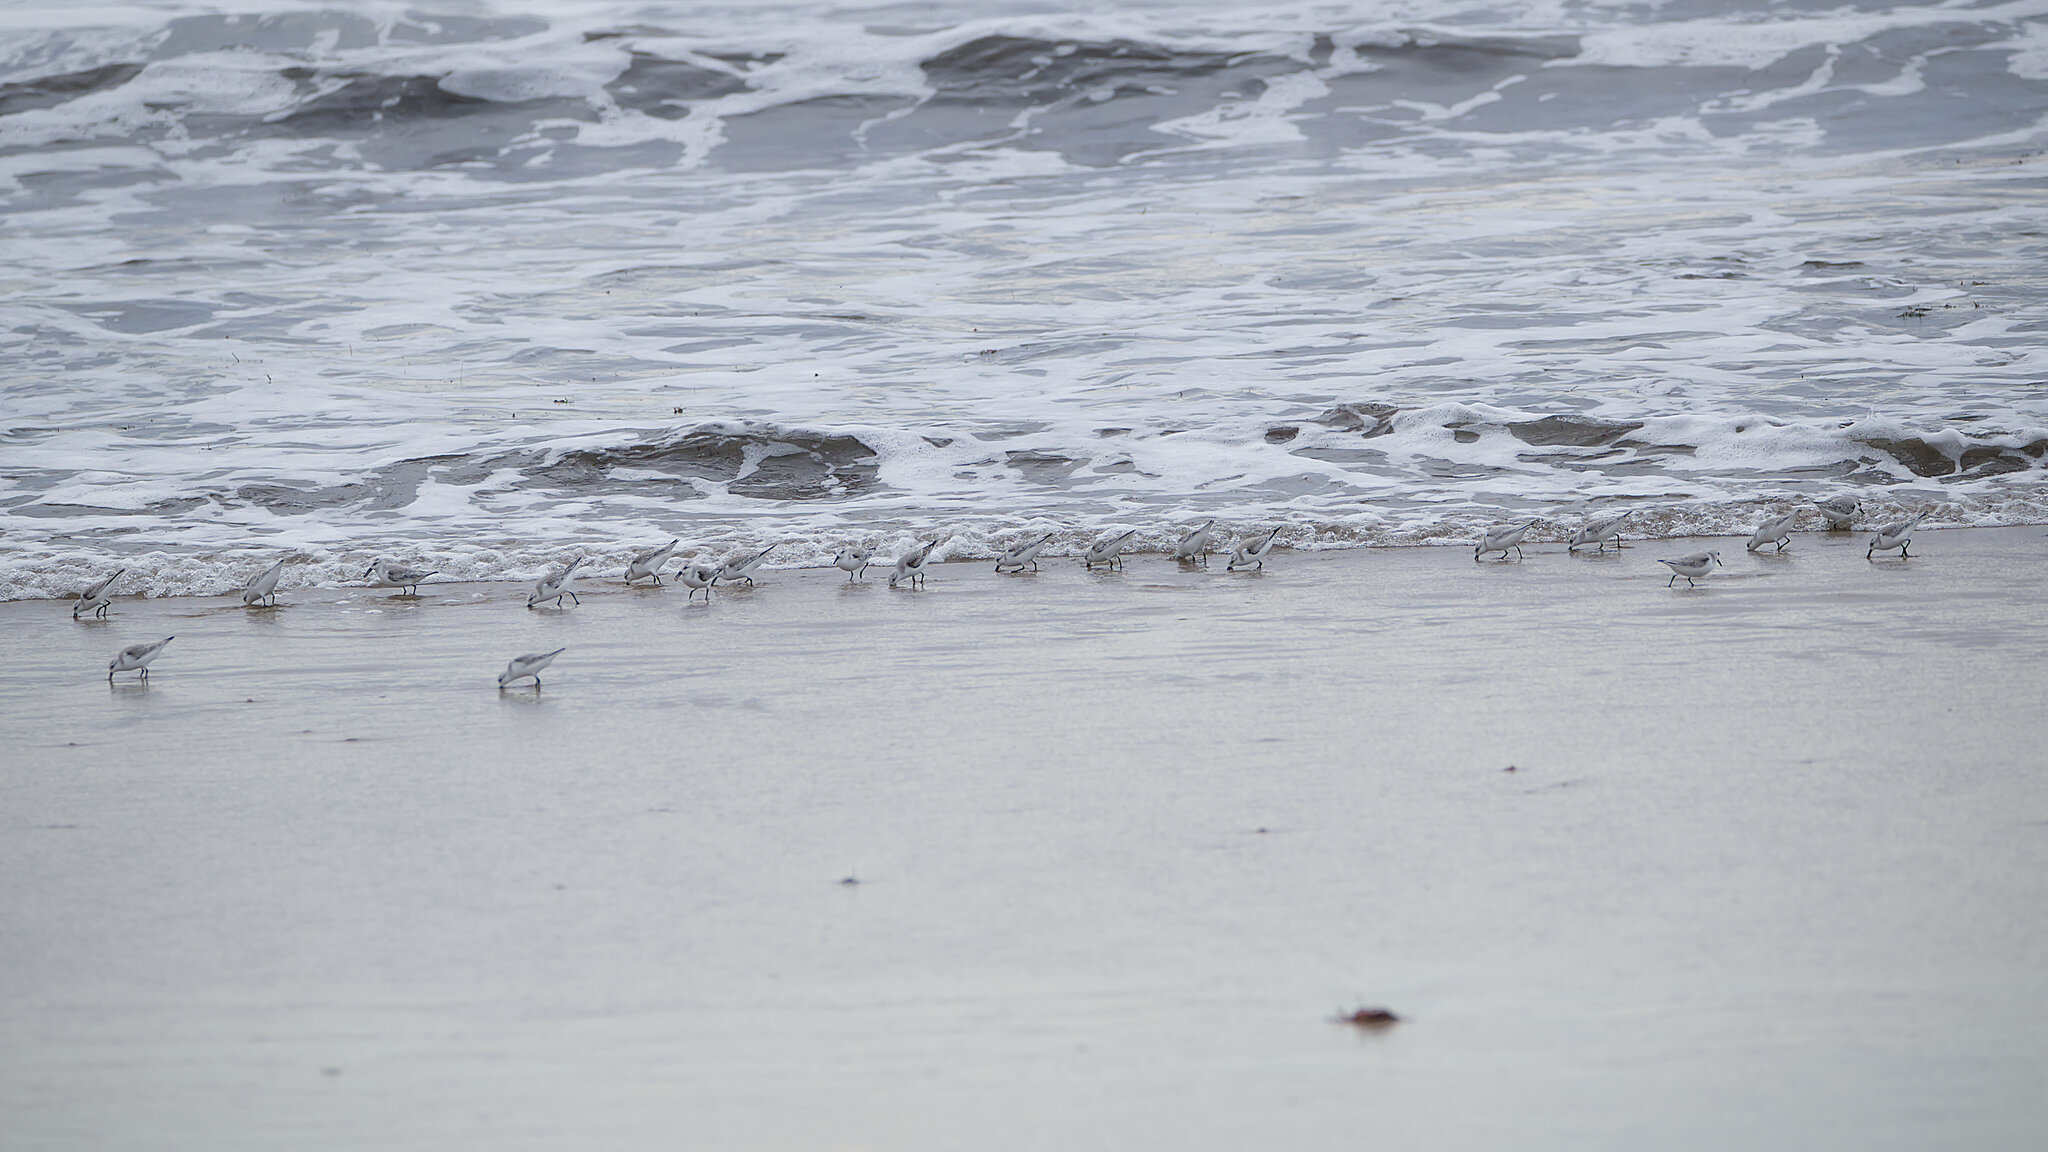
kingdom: Animalia
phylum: Chordata
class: Aves
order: Charadriiformes
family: Scolopacidae
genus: Calidris
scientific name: Calidris alba
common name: Sanderling
